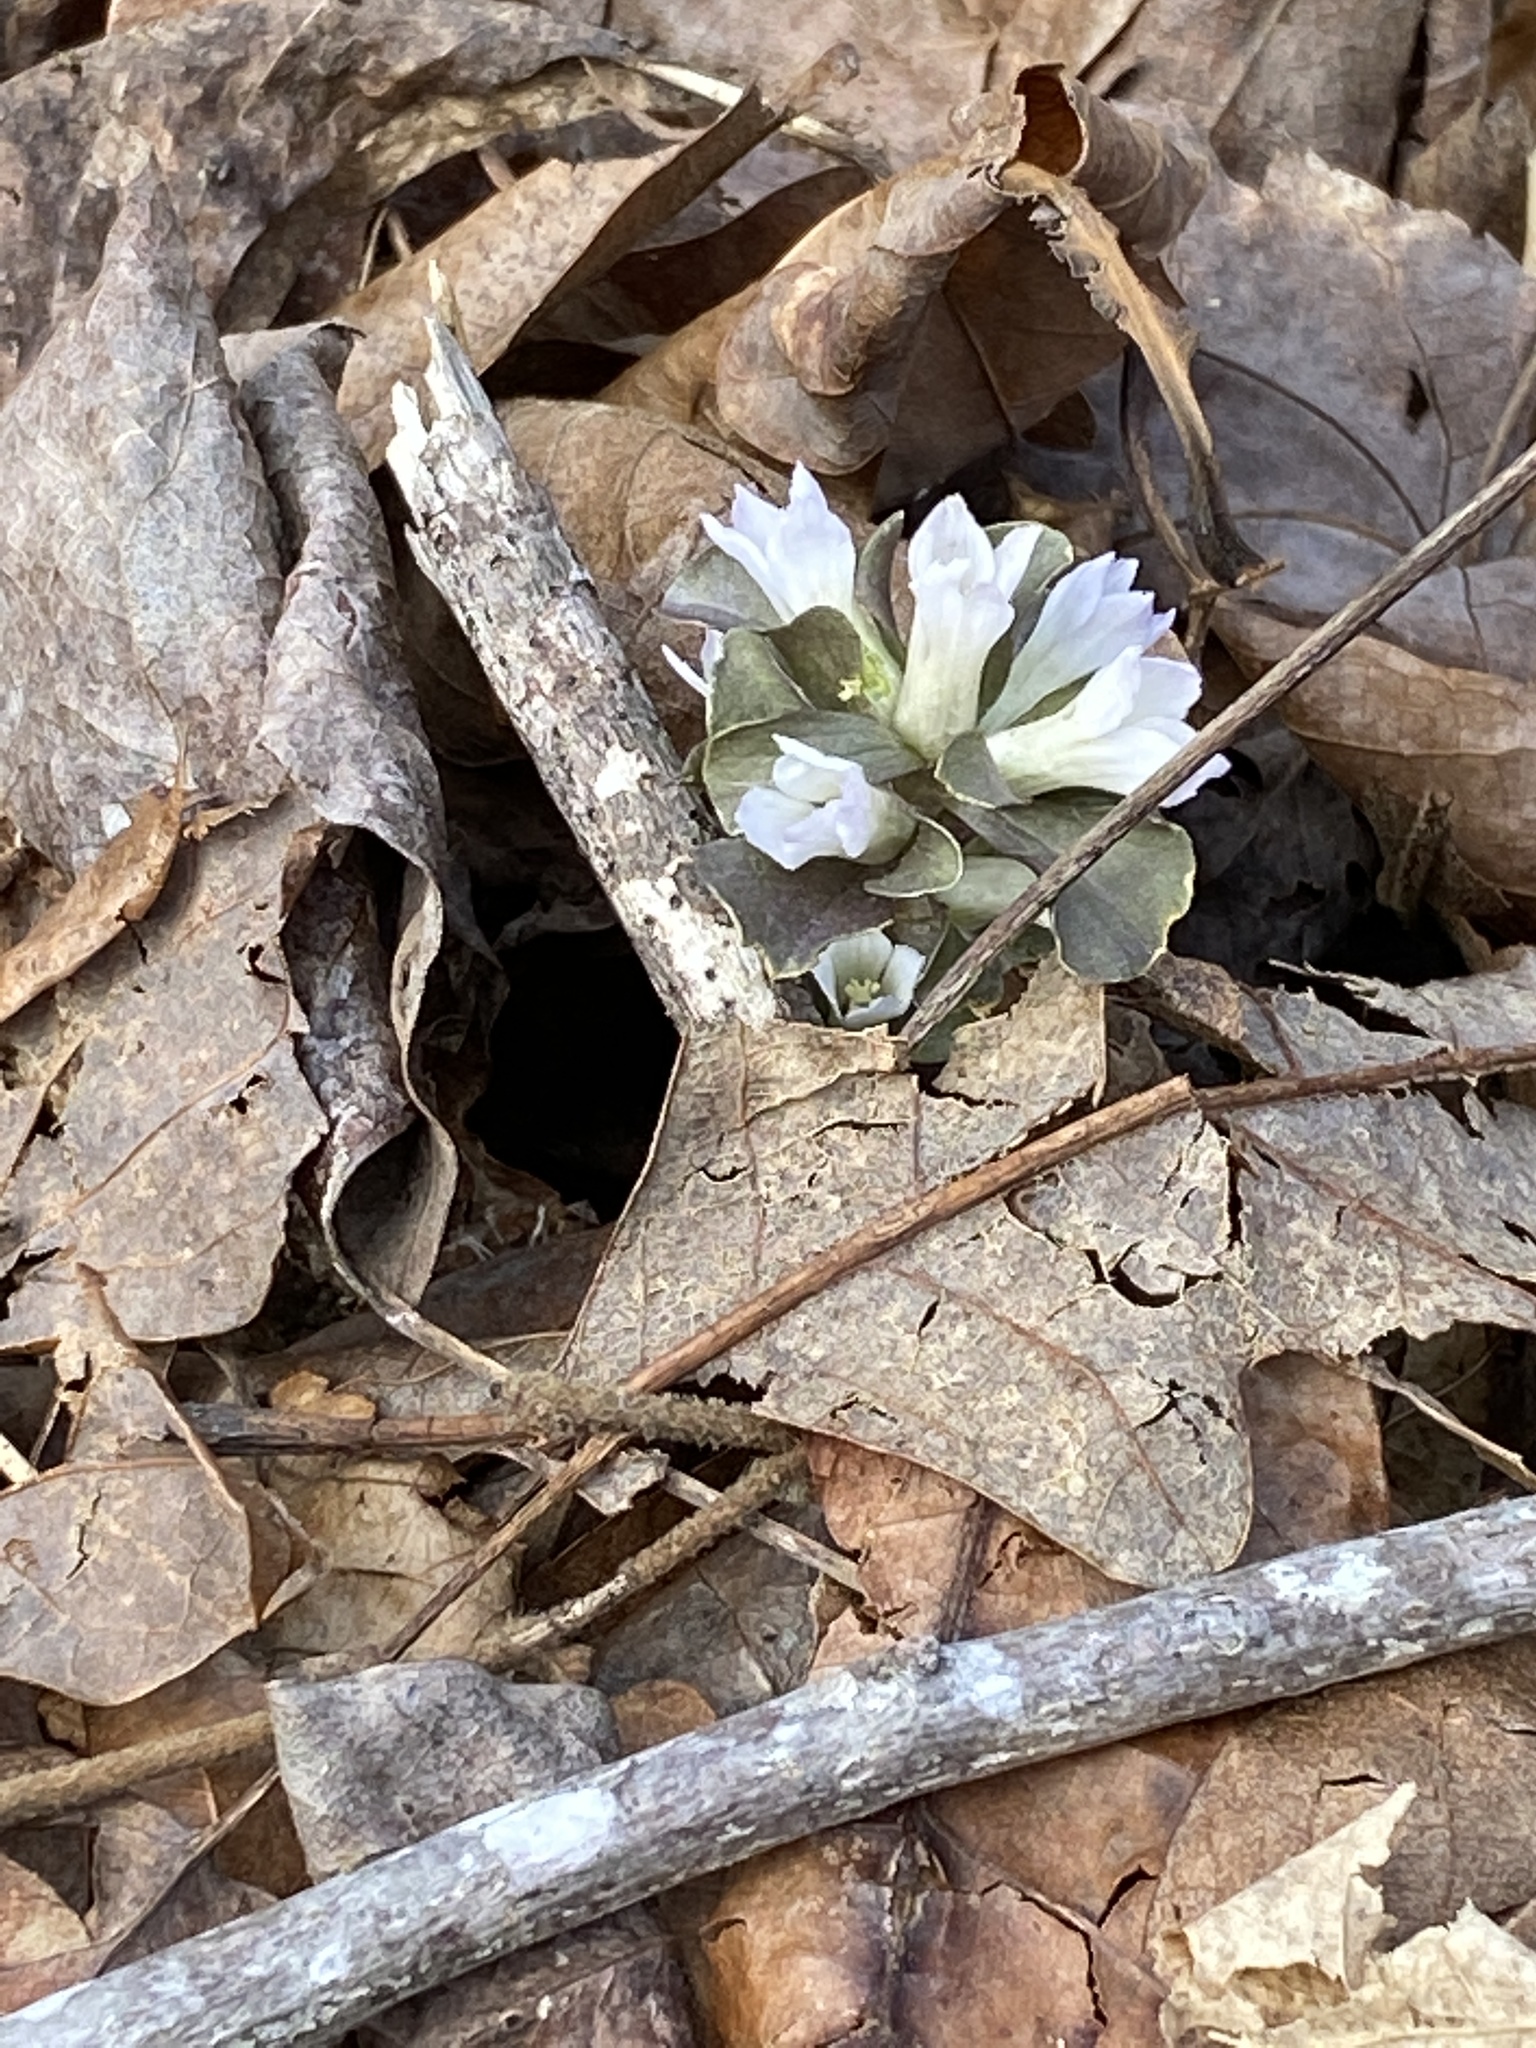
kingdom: Plantae
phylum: Tracheophyta
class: Magnoliopsida
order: Gentianales
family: Gentianaceae
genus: Obolaria
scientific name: Obolaria virginica
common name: Pennywort
